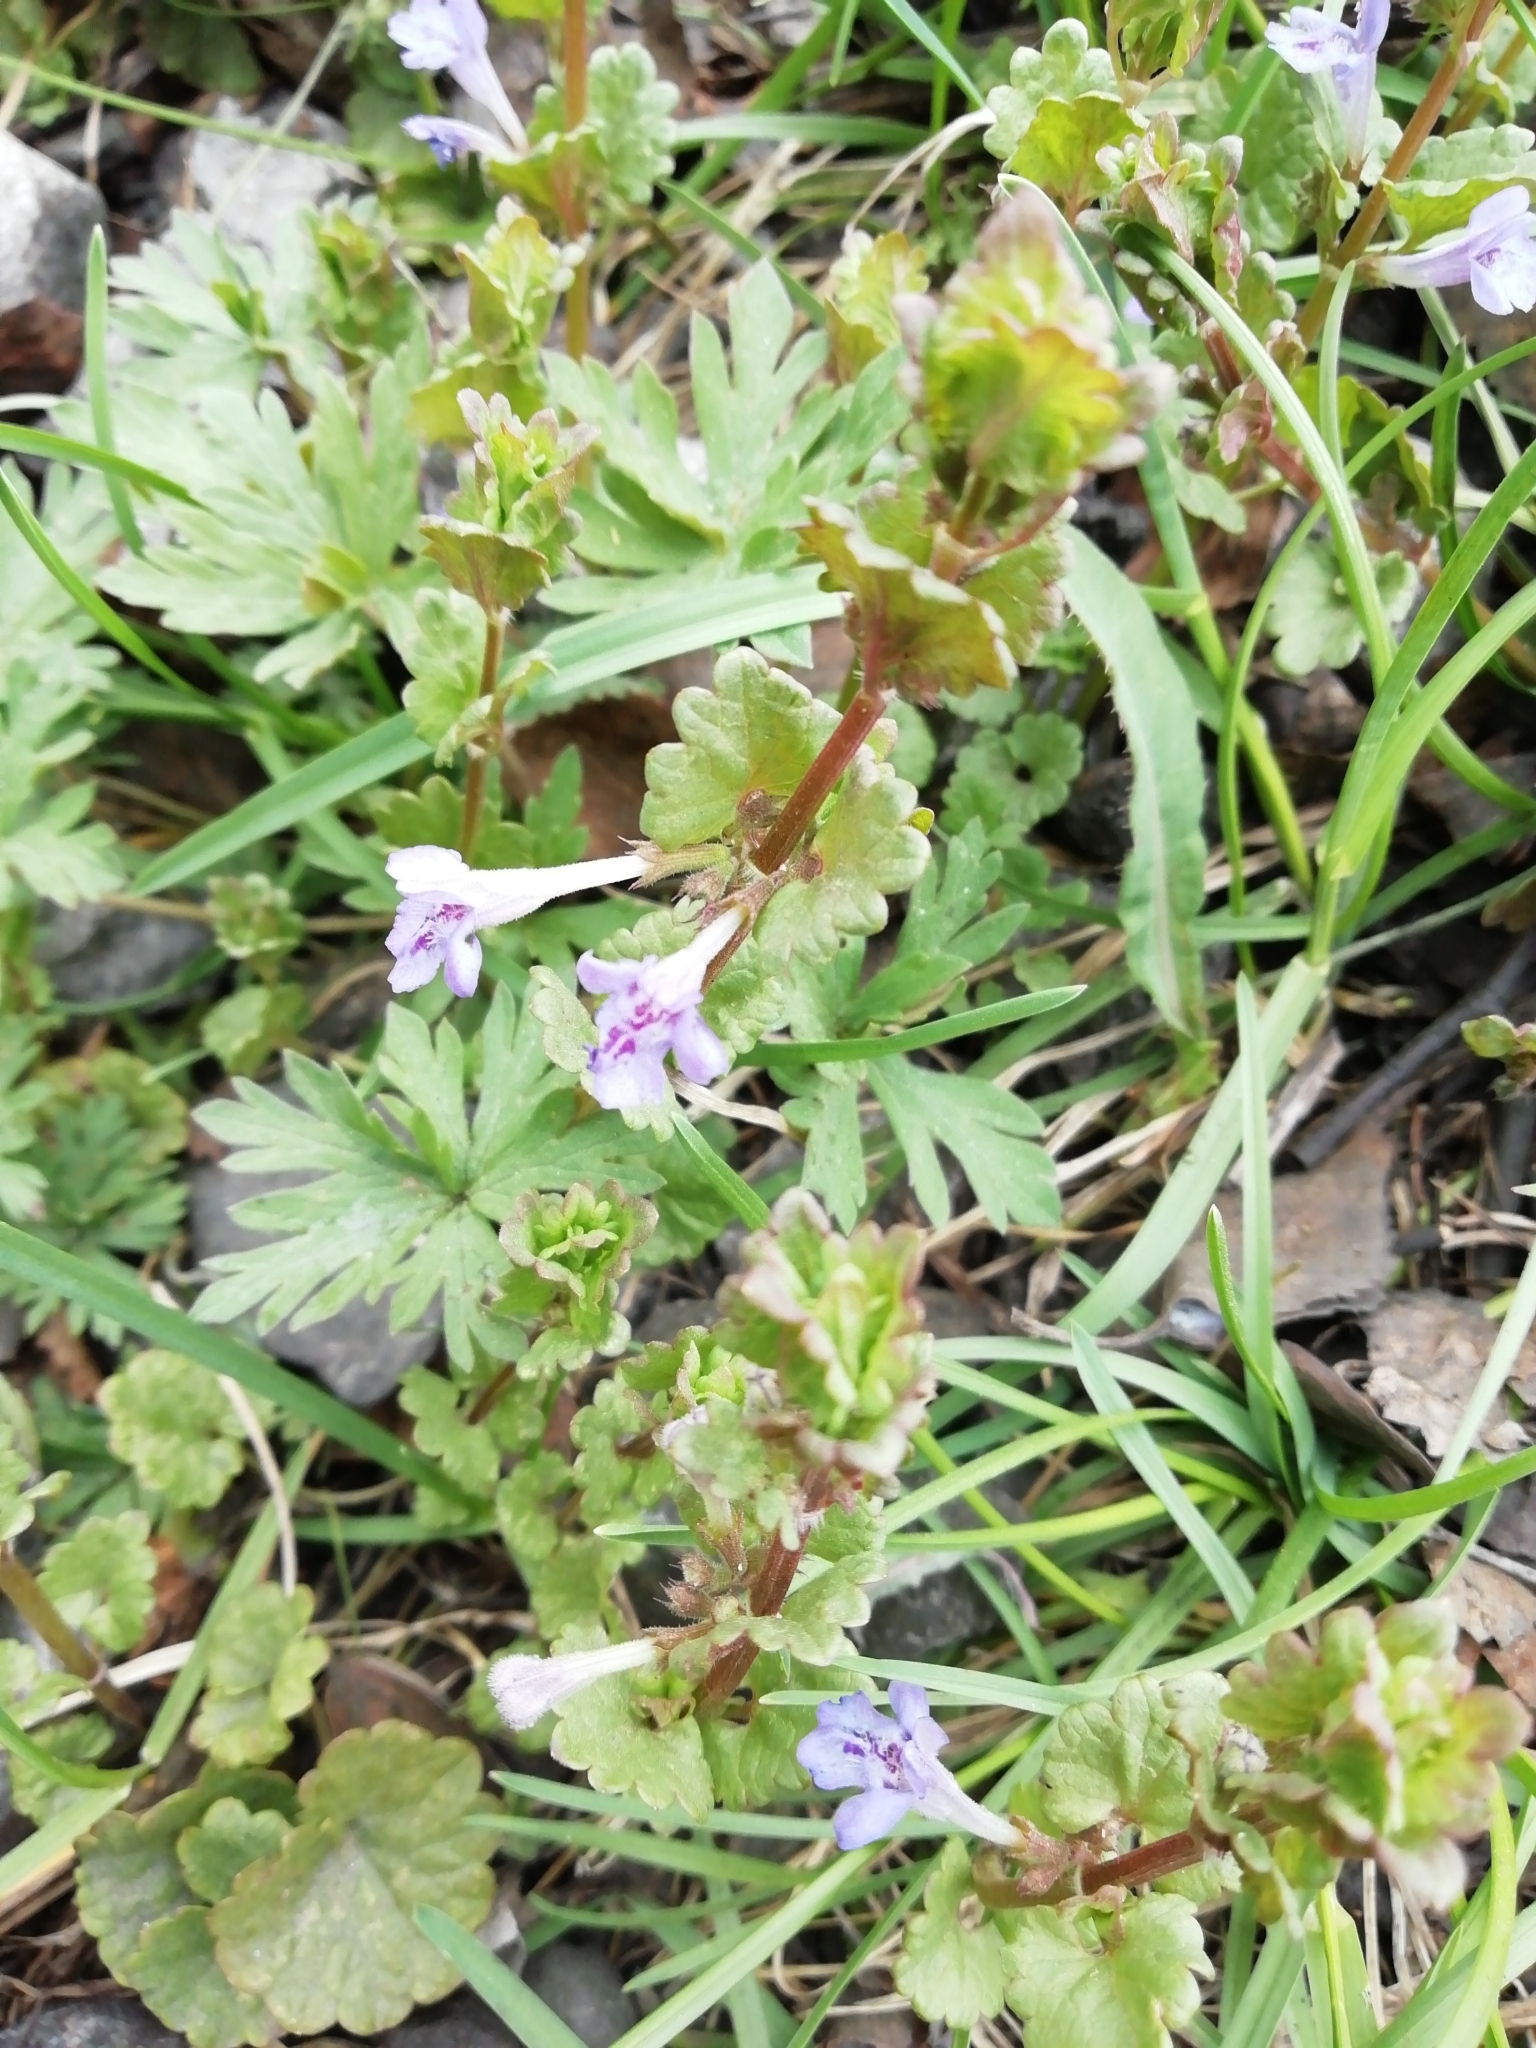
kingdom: Plantae
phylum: Tracheophyta
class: Magnoliopsida
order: Lamiales
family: Lamiaceae
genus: Glechoma
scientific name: Glechoma hederacea
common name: Ground ivy
